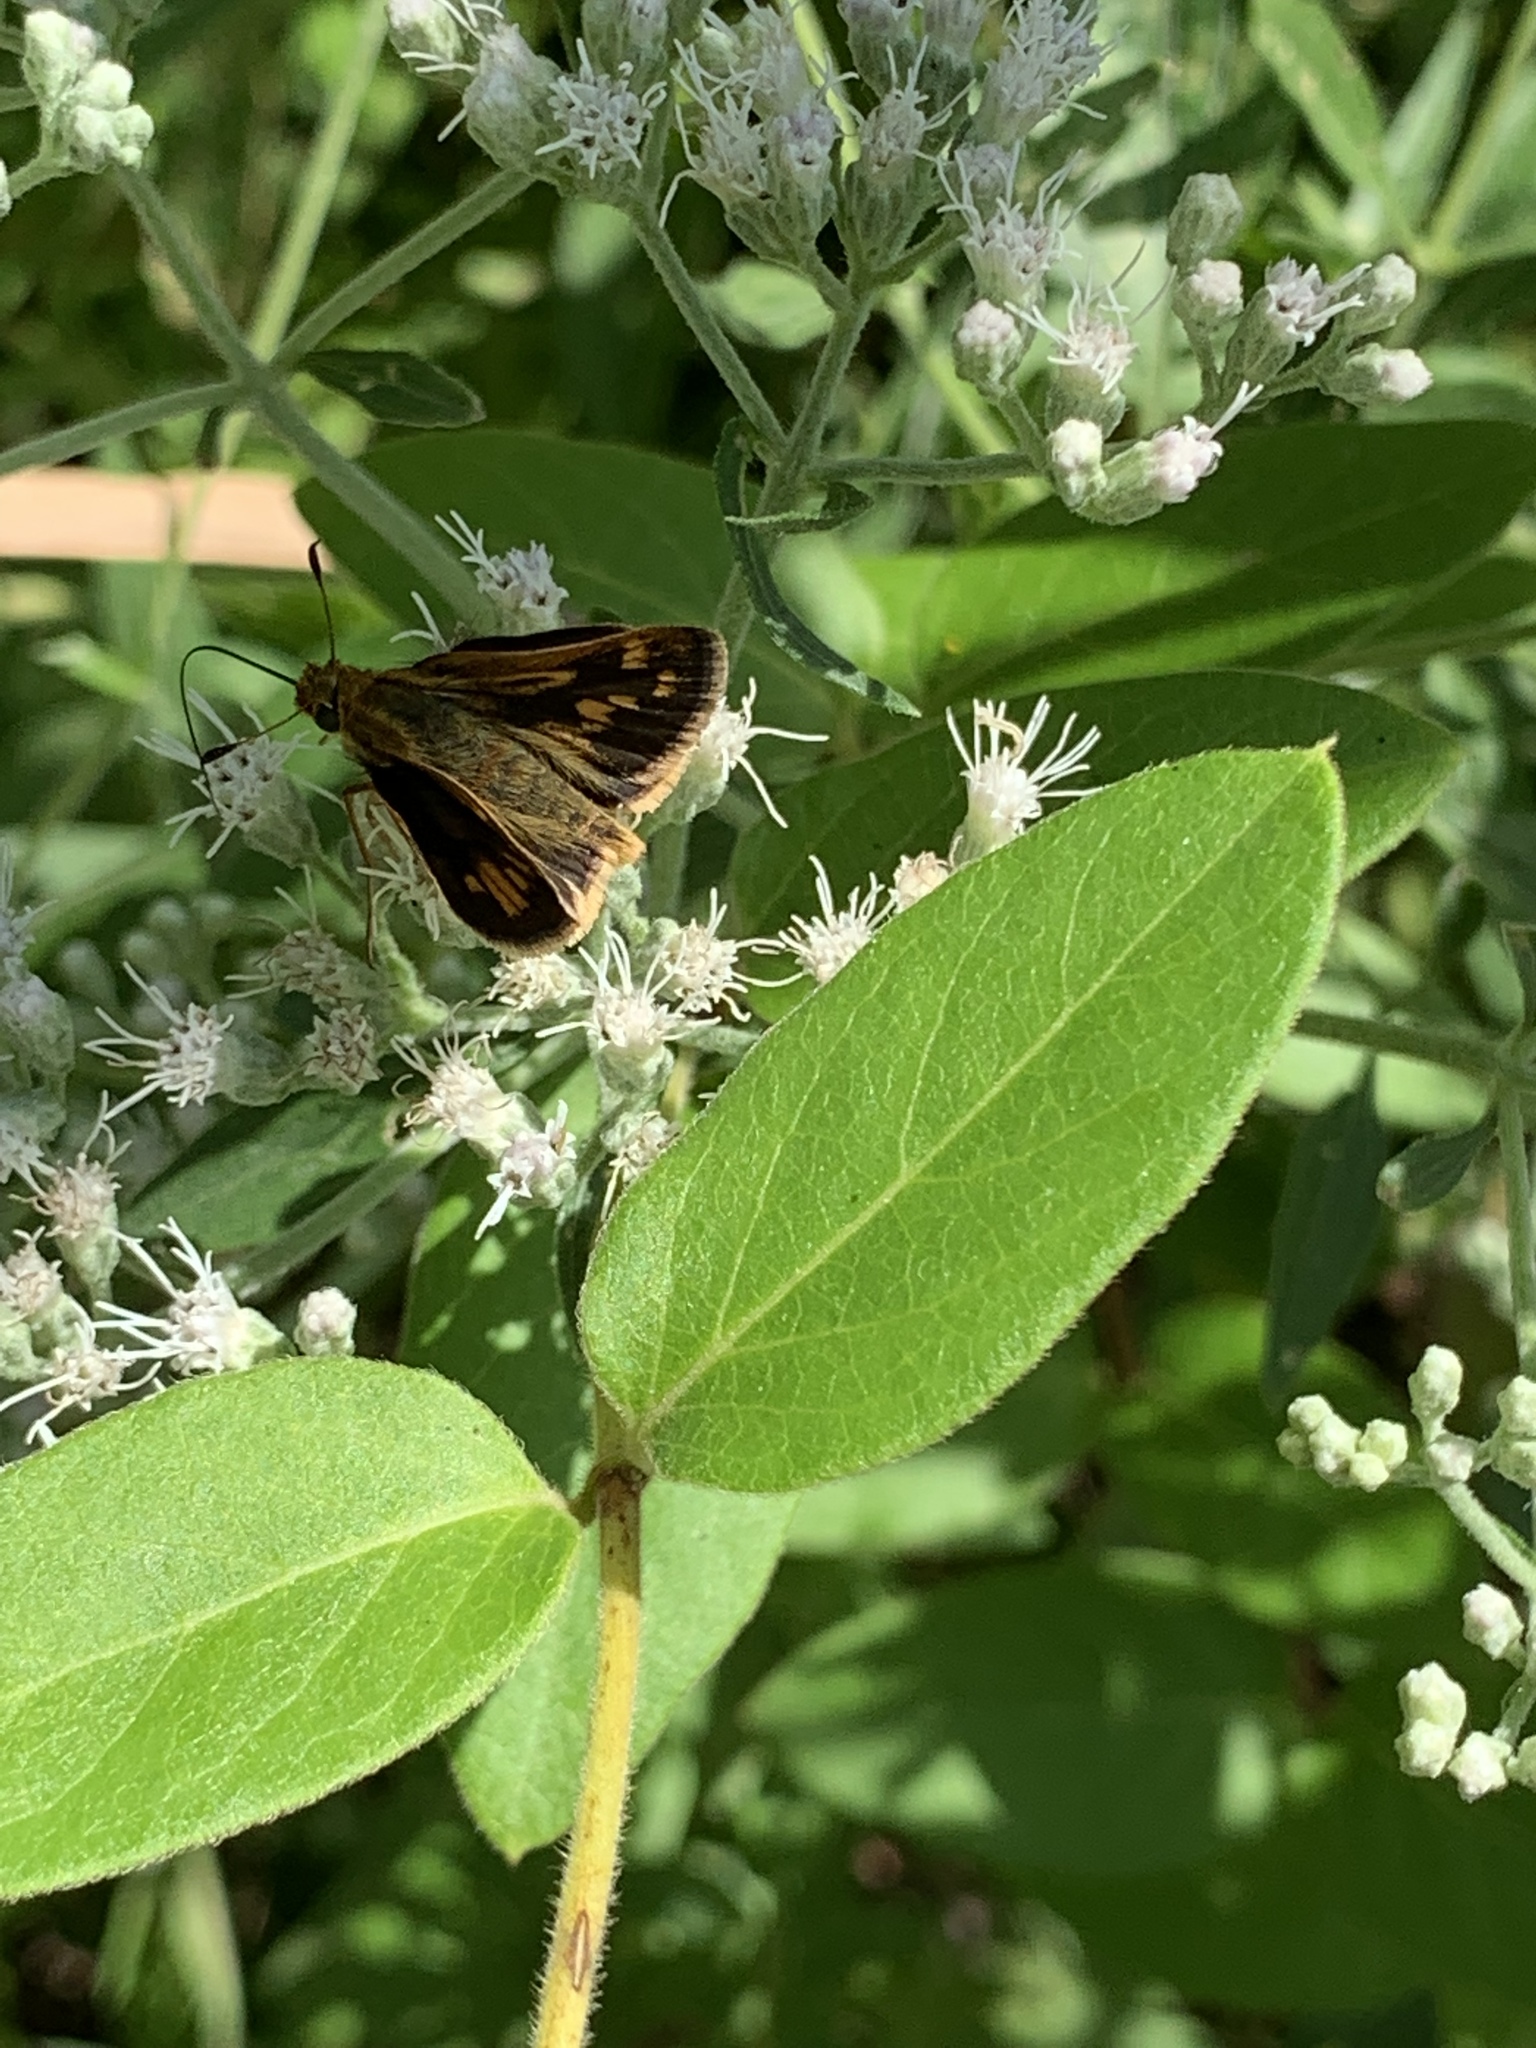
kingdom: Animalia
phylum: Arthropoda
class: Insecta
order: Lepidoptera
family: Hesperiidae
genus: Polites
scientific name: Polites coras
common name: Peck's skipper
